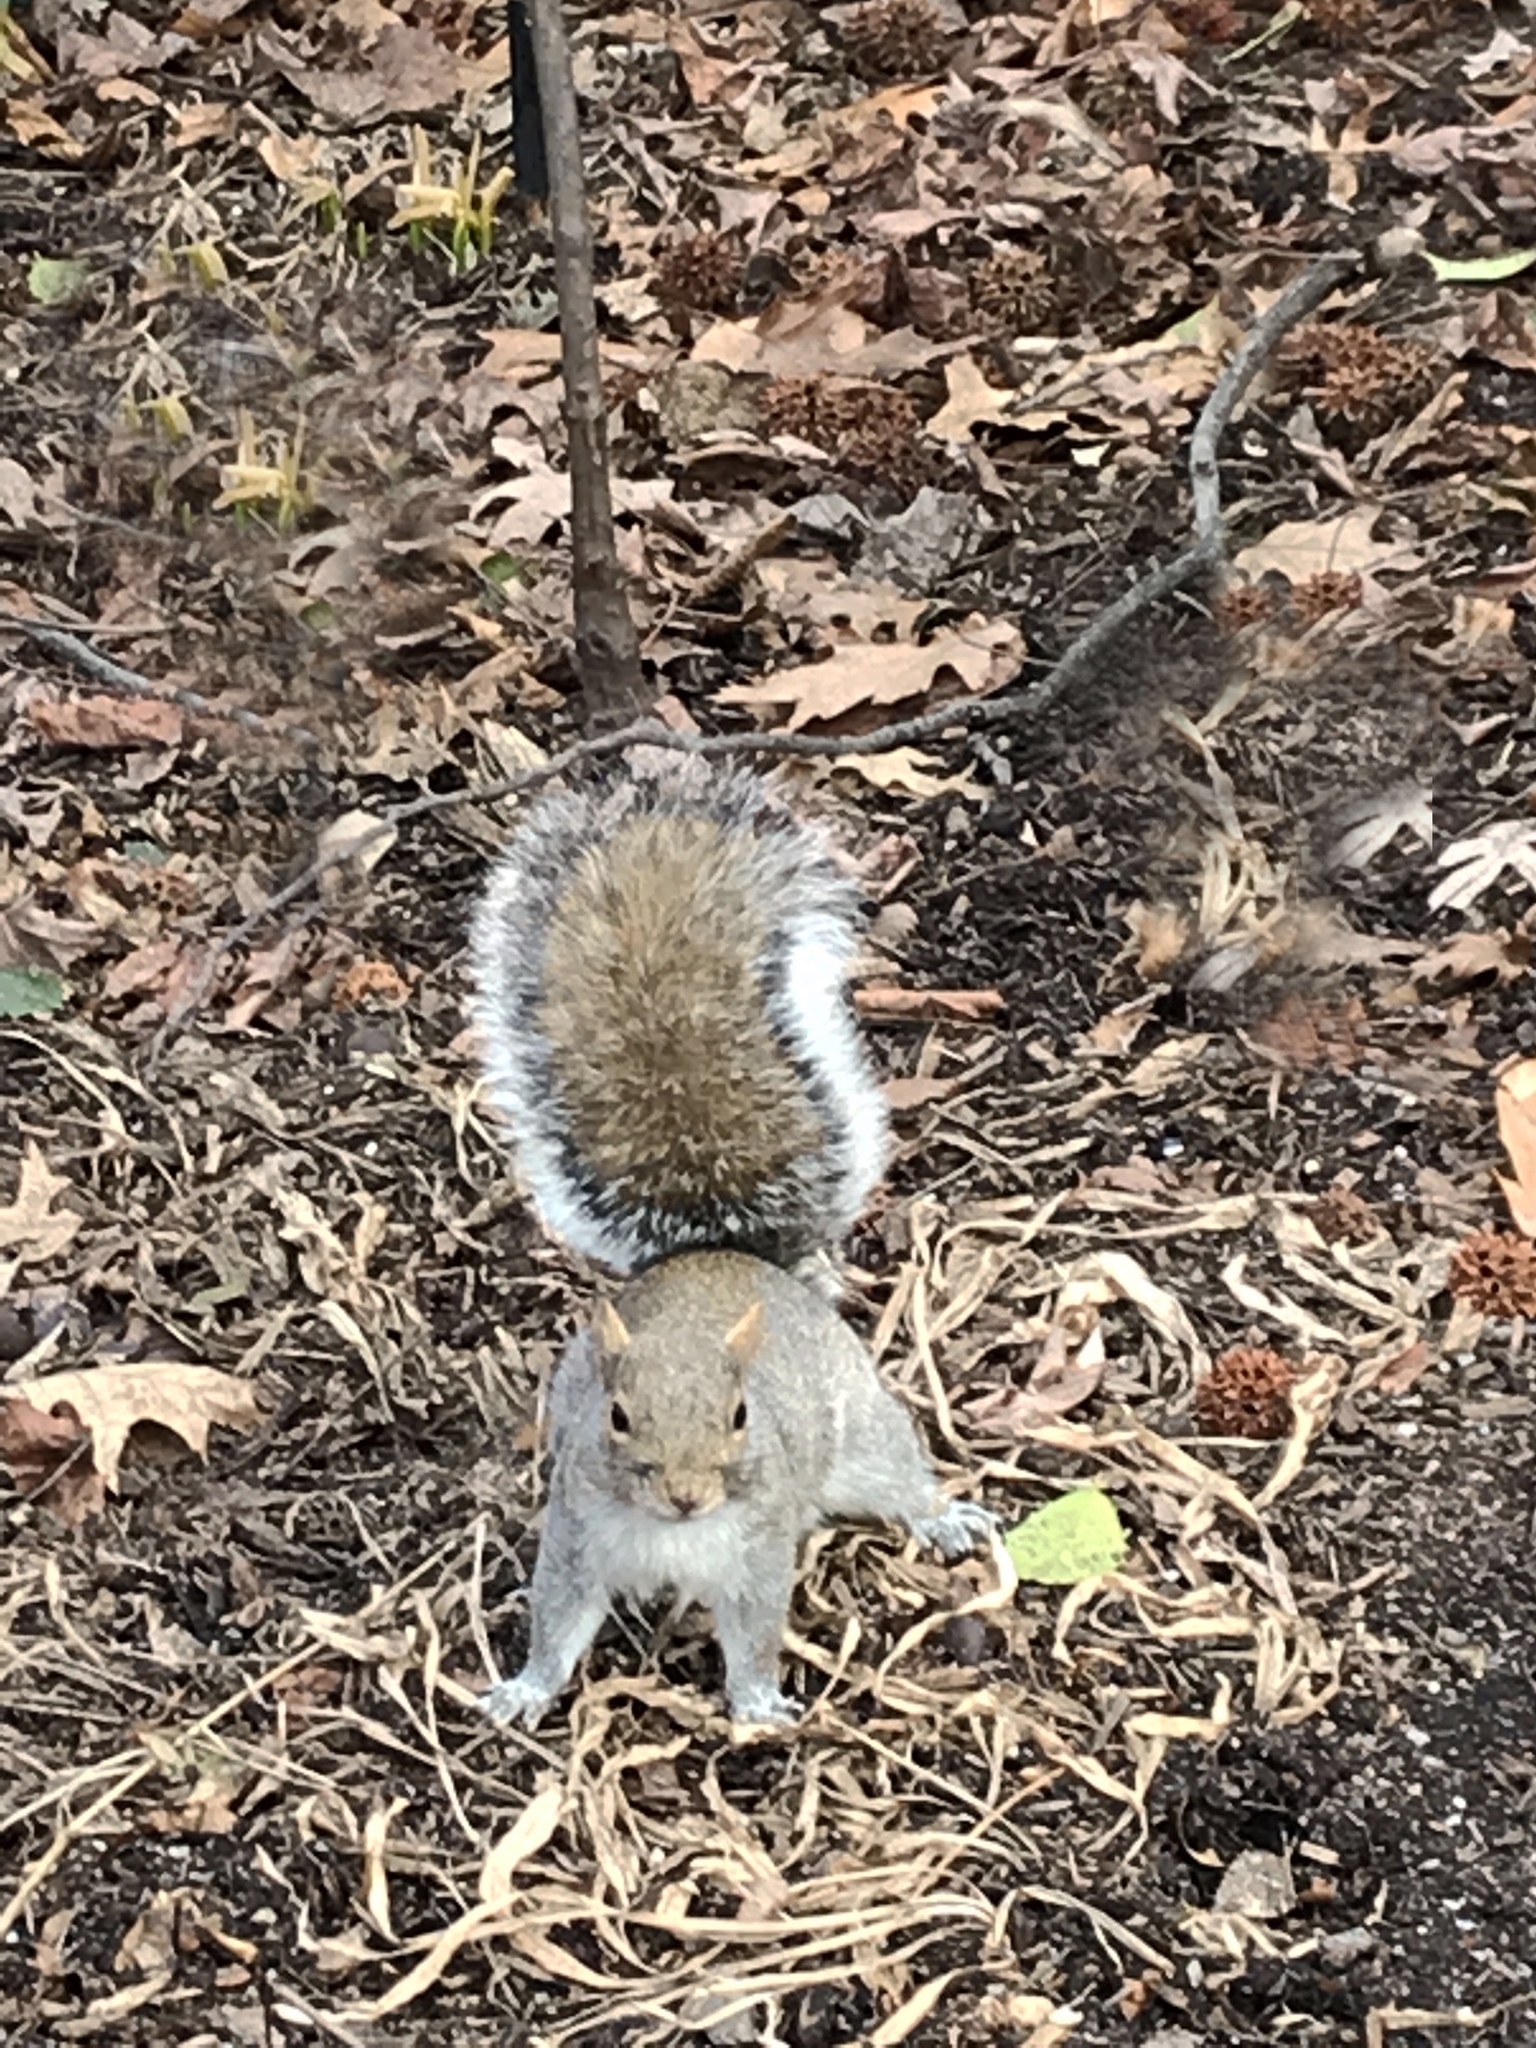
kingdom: Animalia
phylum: Chordata
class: Mammalia
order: Rodentia
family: Sciuridae
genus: Sciurus
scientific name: Sciurus carolinensis
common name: Eastern gray squirrel
